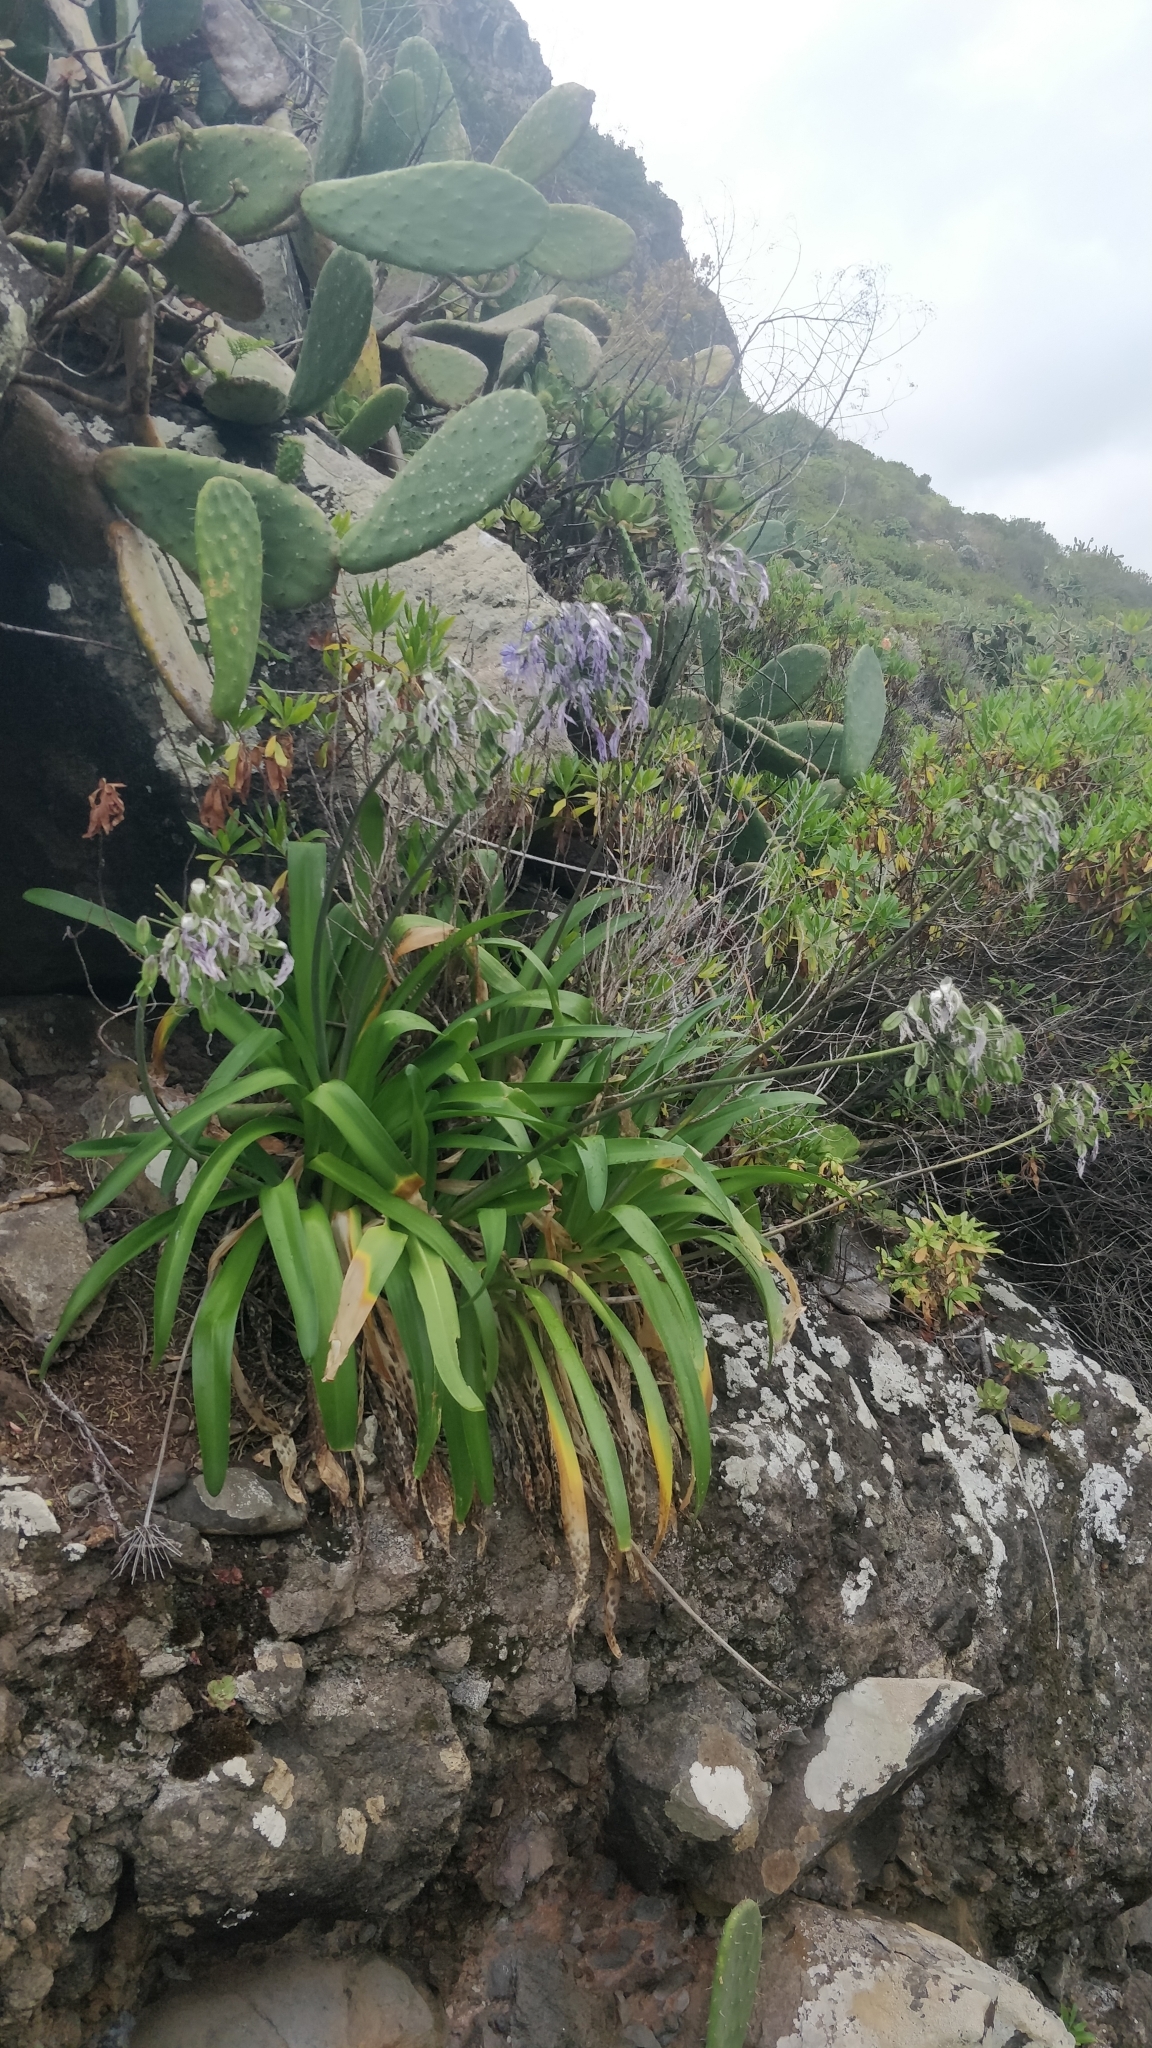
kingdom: Plantae
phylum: Tracheophyta
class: Liliopsida
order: Asparagales
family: Amaryllidaceae
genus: Agapanthus
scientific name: Agapanthus praecox
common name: African-lily
